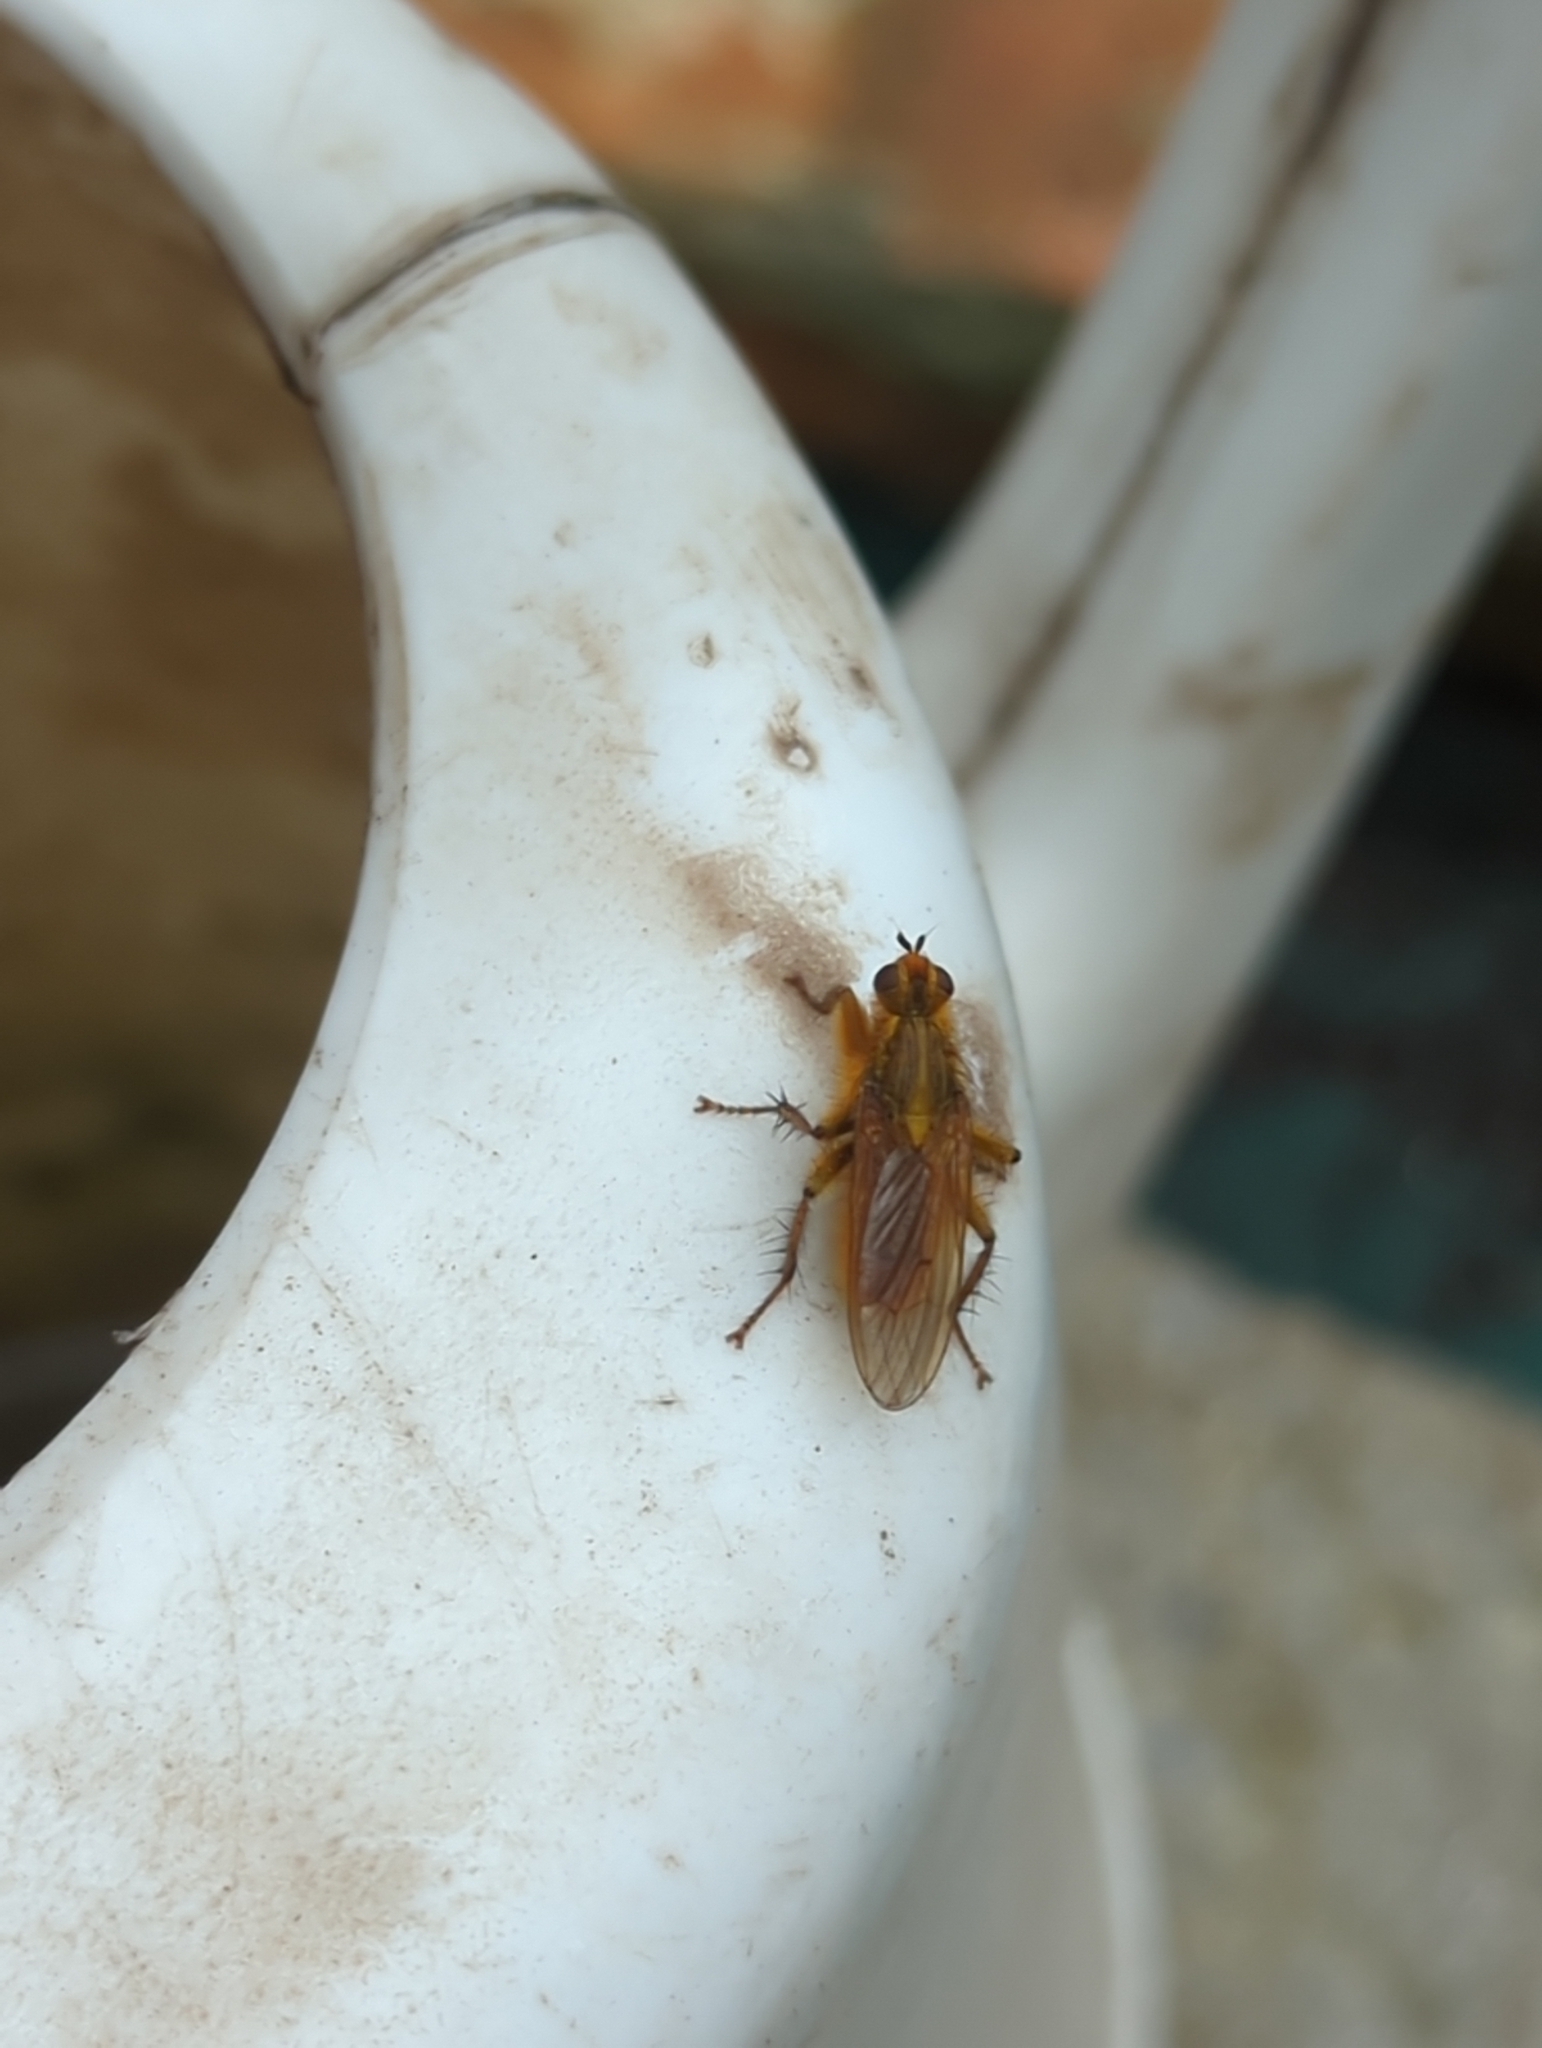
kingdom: Animalia
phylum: Arthropoda
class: Insecta
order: Diptera
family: Scathophagidae
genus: Scathophaga
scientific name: Scathophaga stercoraria
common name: Yellow dung fly
